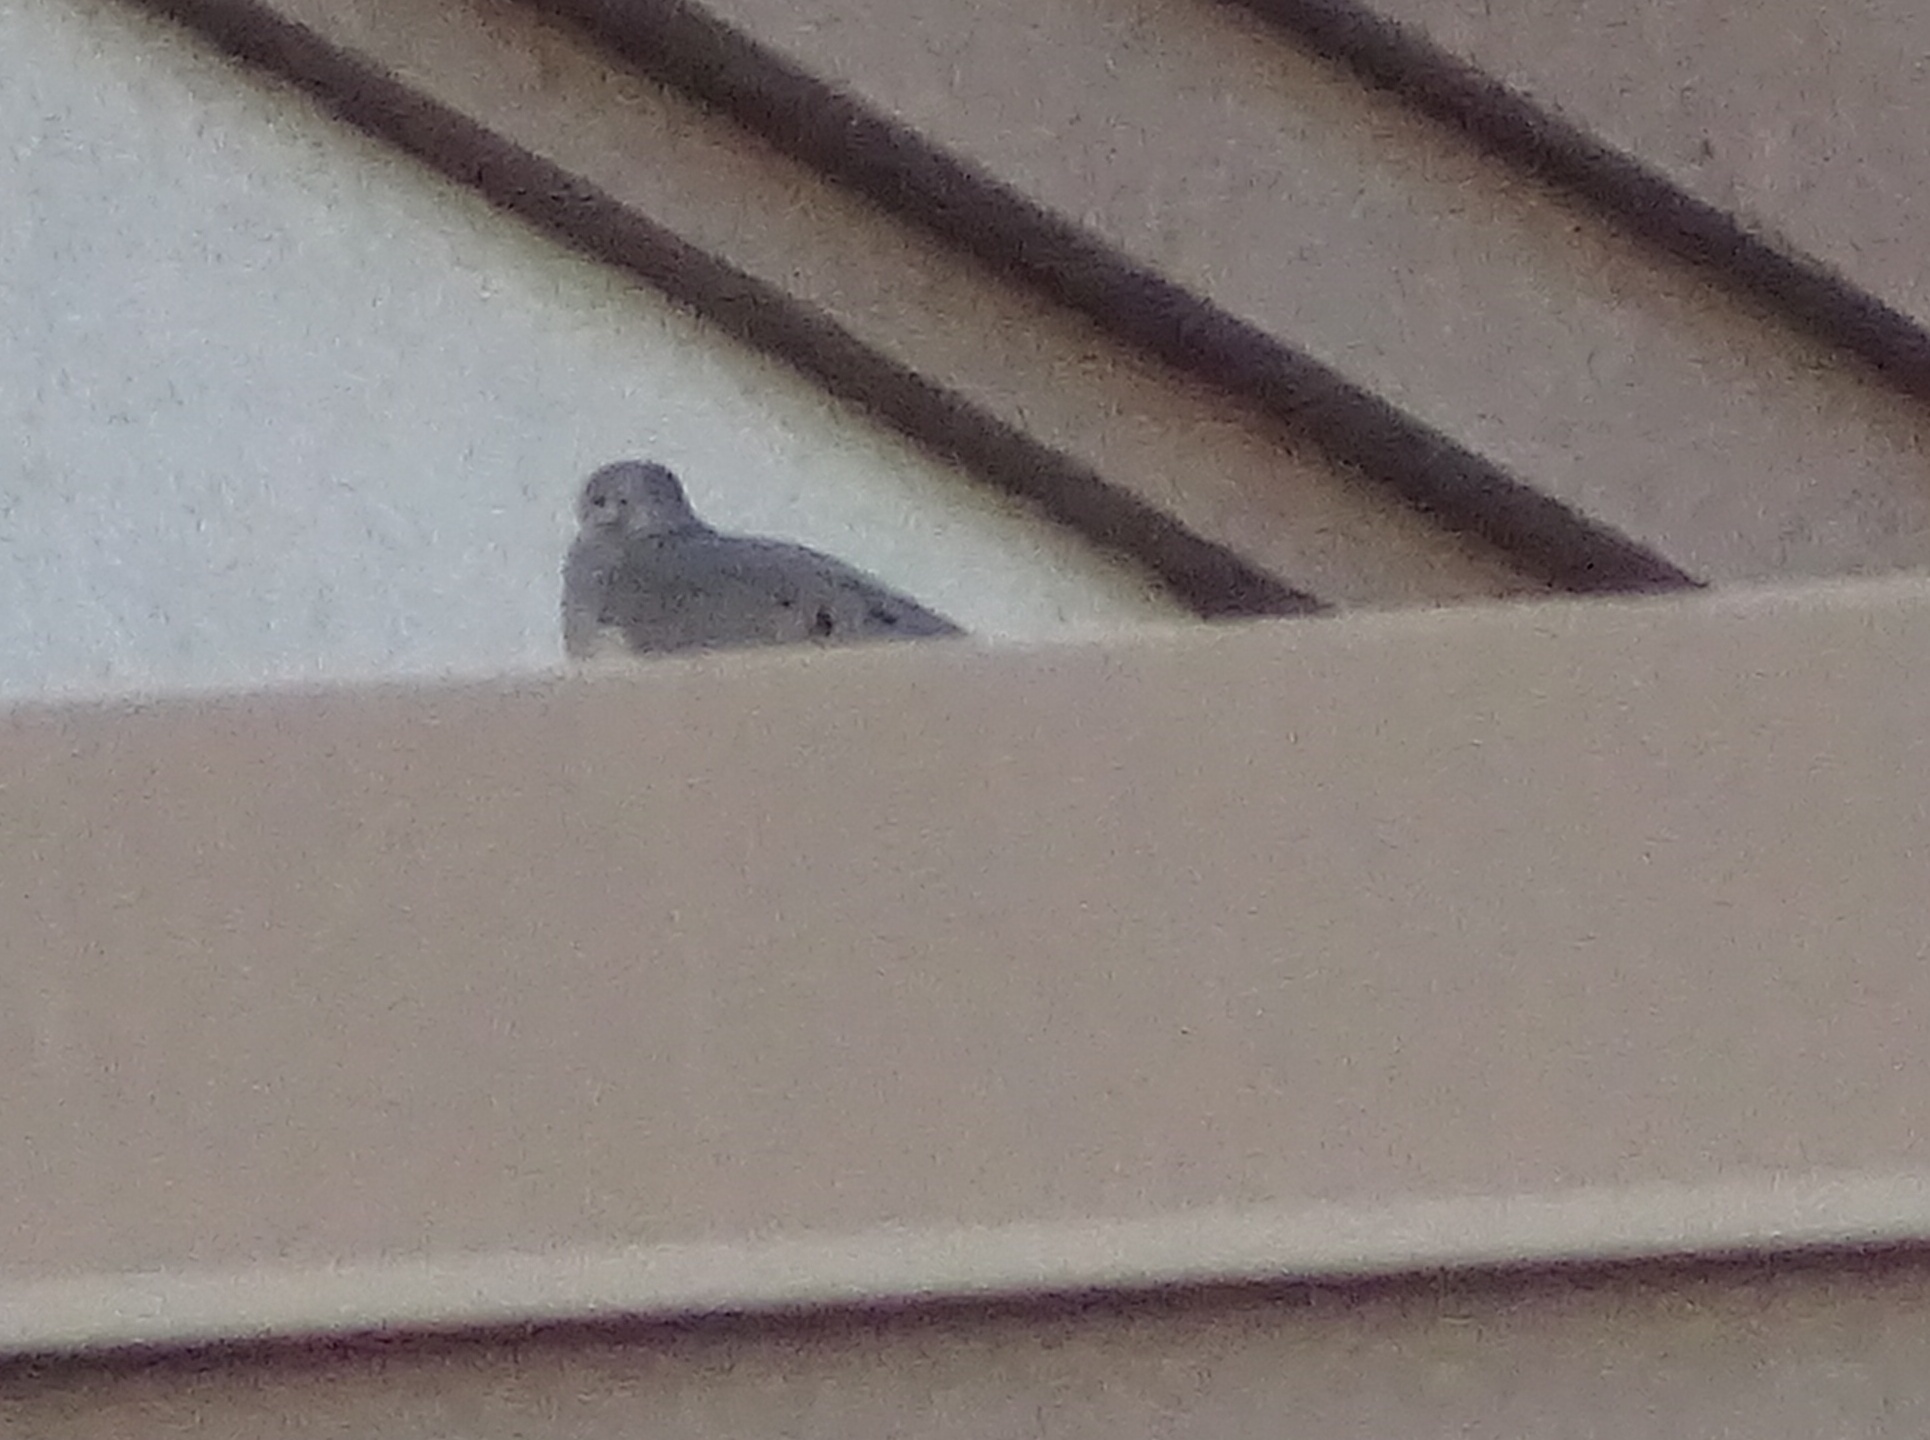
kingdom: Animalia
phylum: Chordata
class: Aves
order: Columbiformes
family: Columbidae
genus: Zenaida
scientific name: Zenaida macroura
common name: Mourning dove
